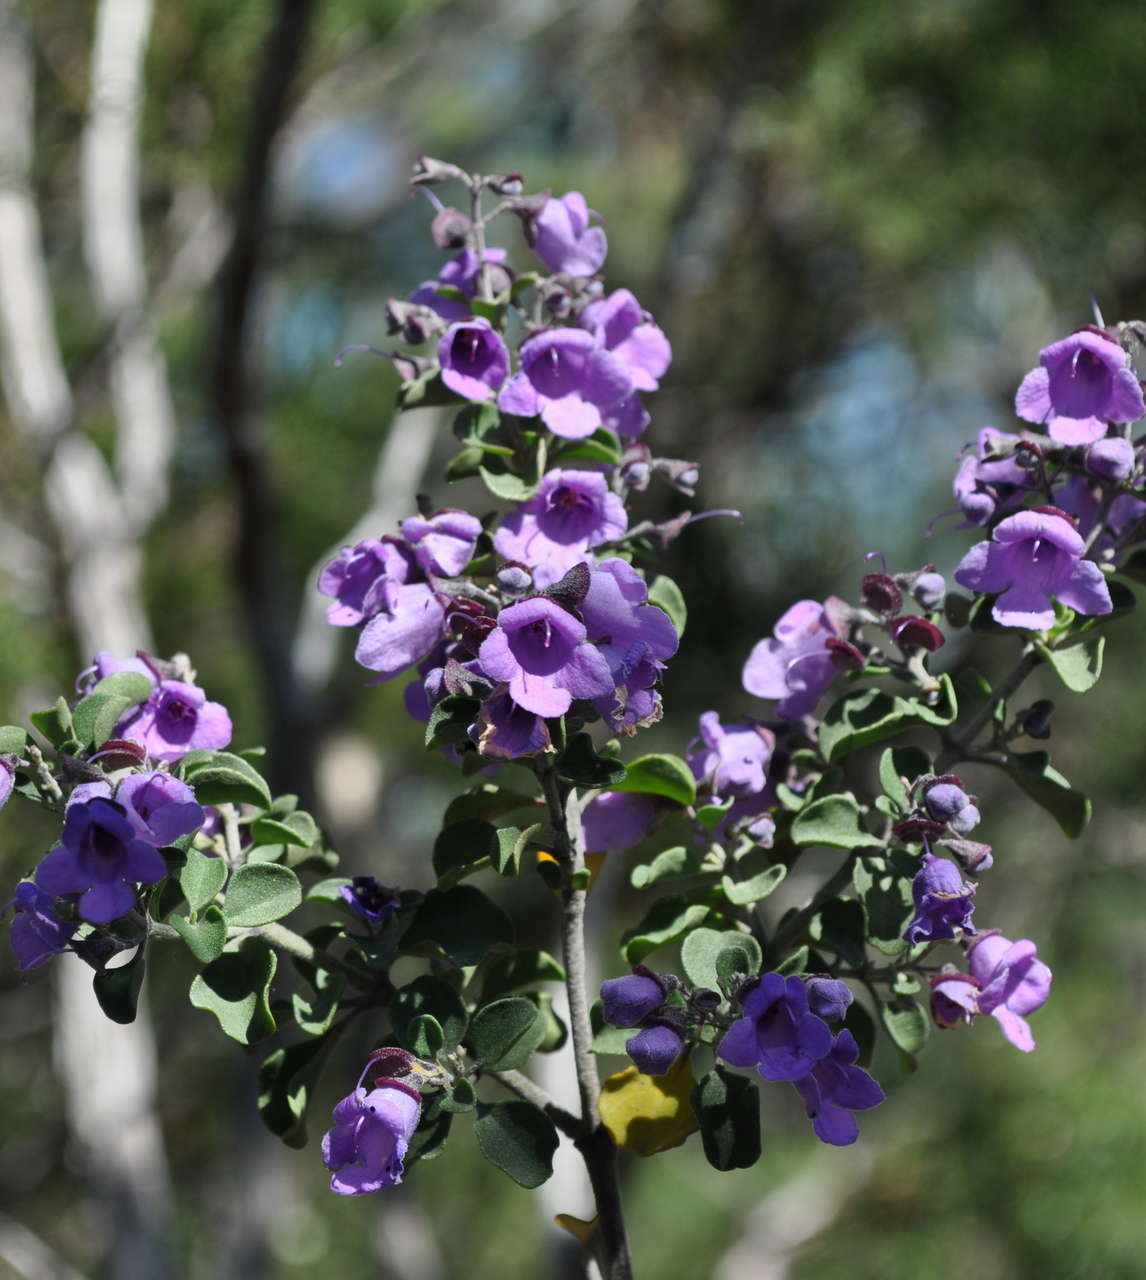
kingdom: Plantae
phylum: Tracheophyta
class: Magnoliopsida
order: Lamiales
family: Lamiaceae
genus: Prostanthera
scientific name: Prostanthera rotundifolia
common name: Round-leaf mintbush
